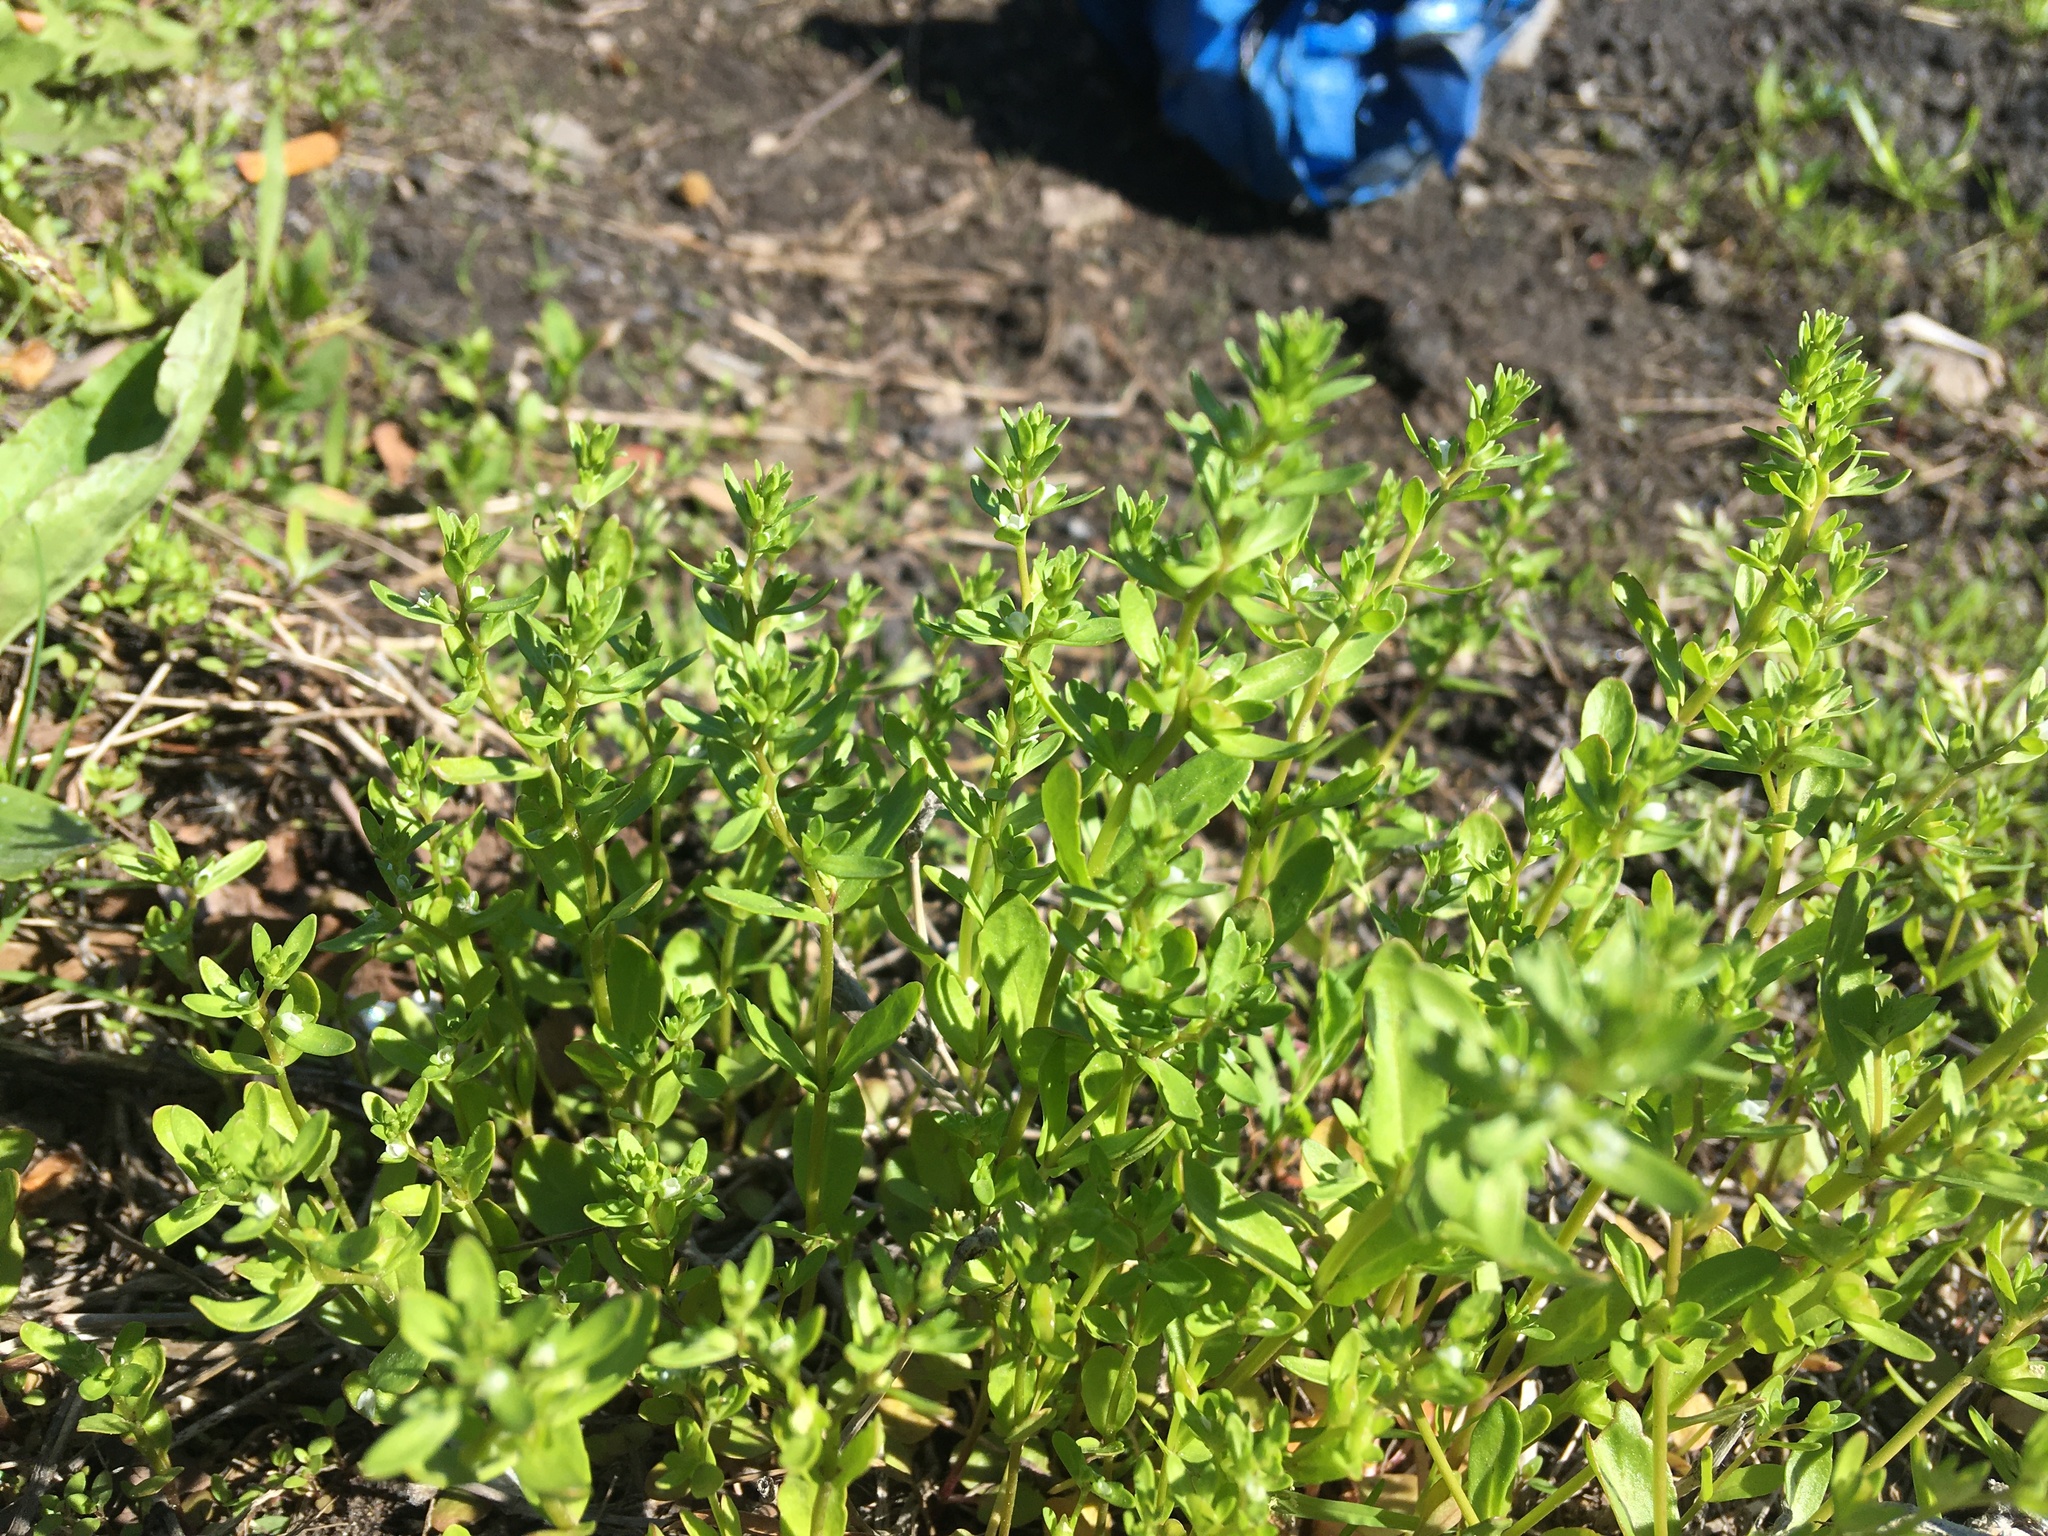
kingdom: Plantae
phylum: Tracheophyta
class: Magnoliopsida
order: Lamiales
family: Plantaginaceae
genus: Veronica
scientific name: Veronica peregrina
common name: Neckweed
